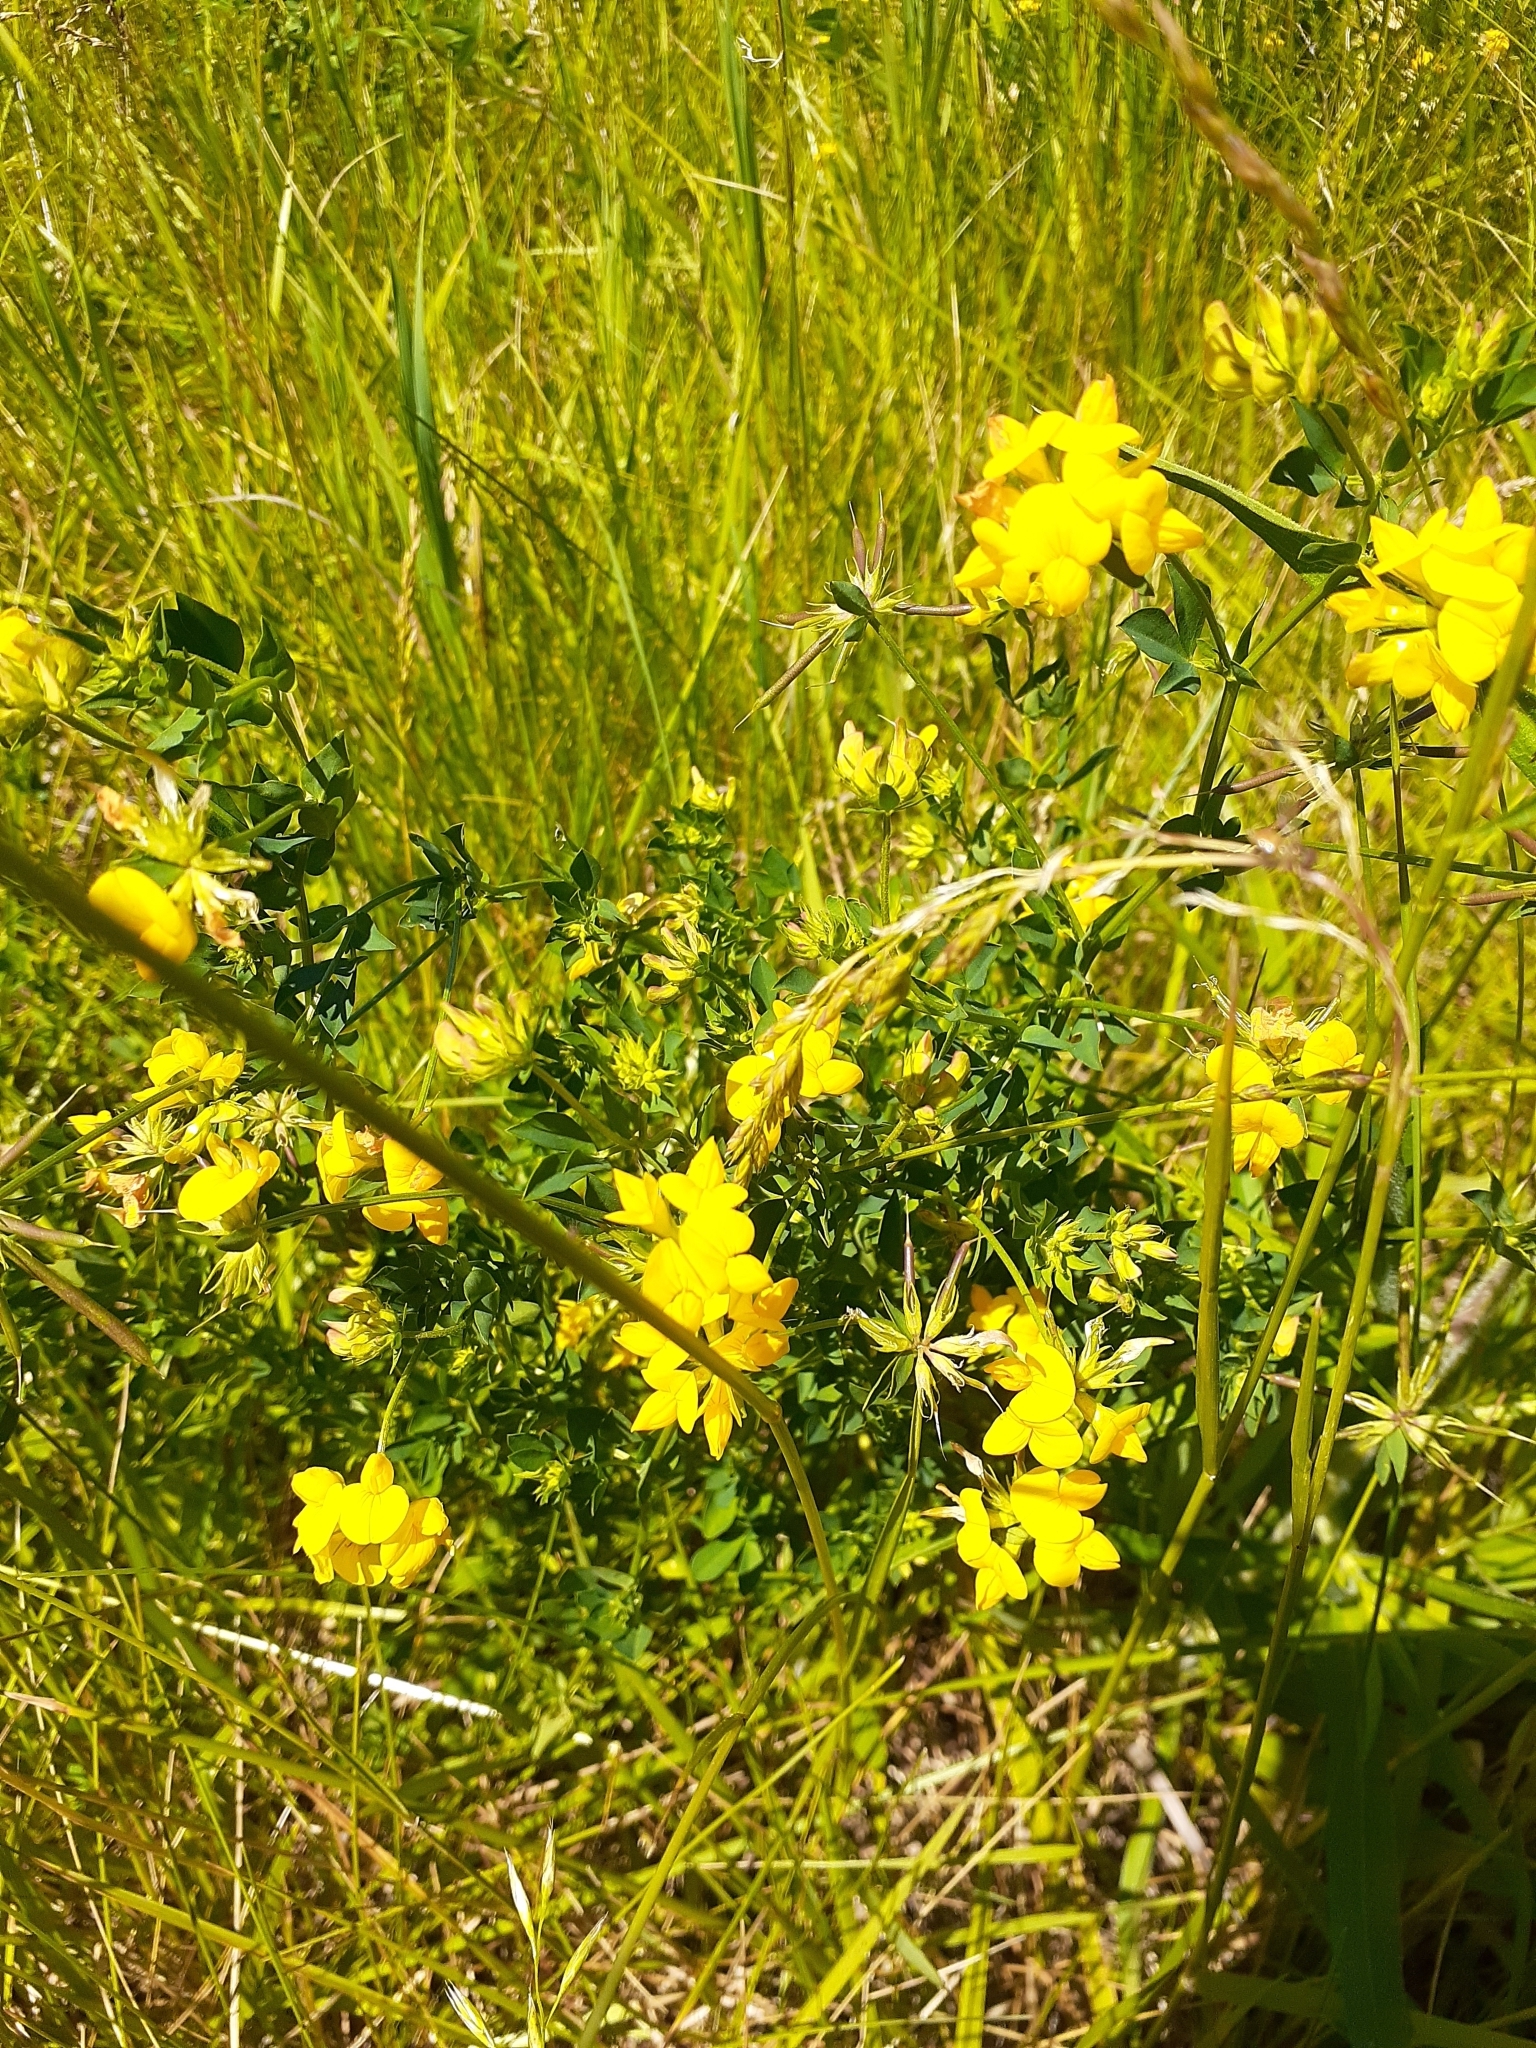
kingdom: Plantae
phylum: Tracheophyta
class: Magnoliopsida
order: Fabales
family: Fabaceae
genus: Lotus
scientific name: Lotus corniculatus
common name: Common bird's-foot-trefoil
